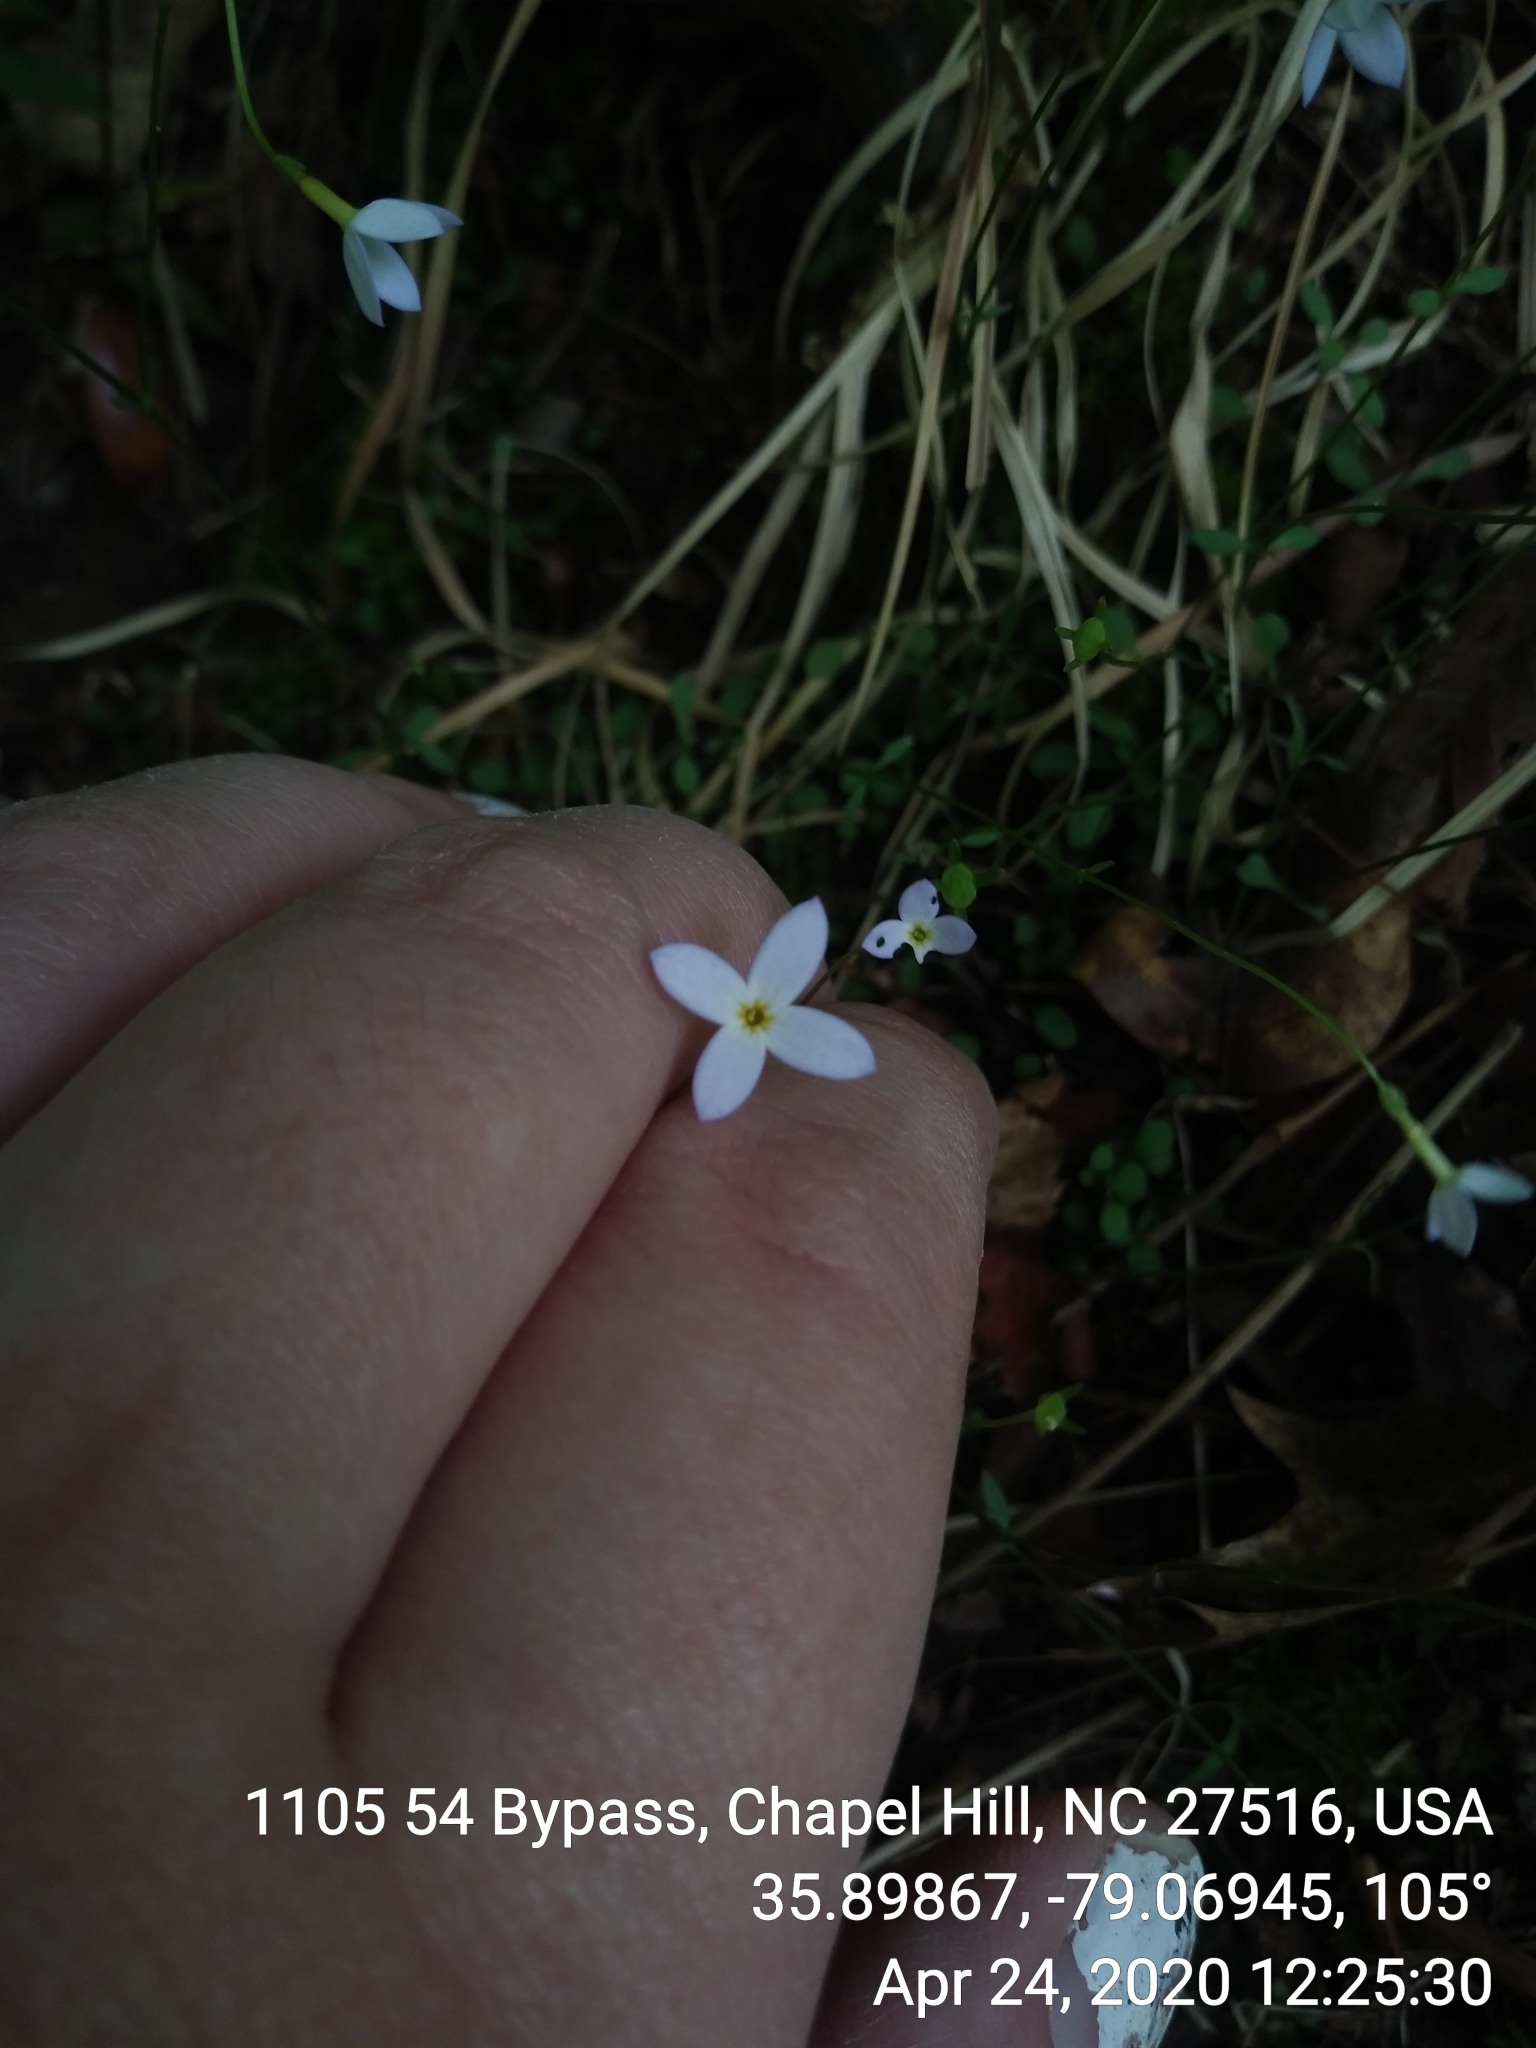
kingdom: Plantae
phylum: Tracheophyta
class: Magnoliopsida
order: Gentianales
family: Rubiaceae
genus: Houstonia
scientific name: Houstonia caerulea
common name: Bluets
